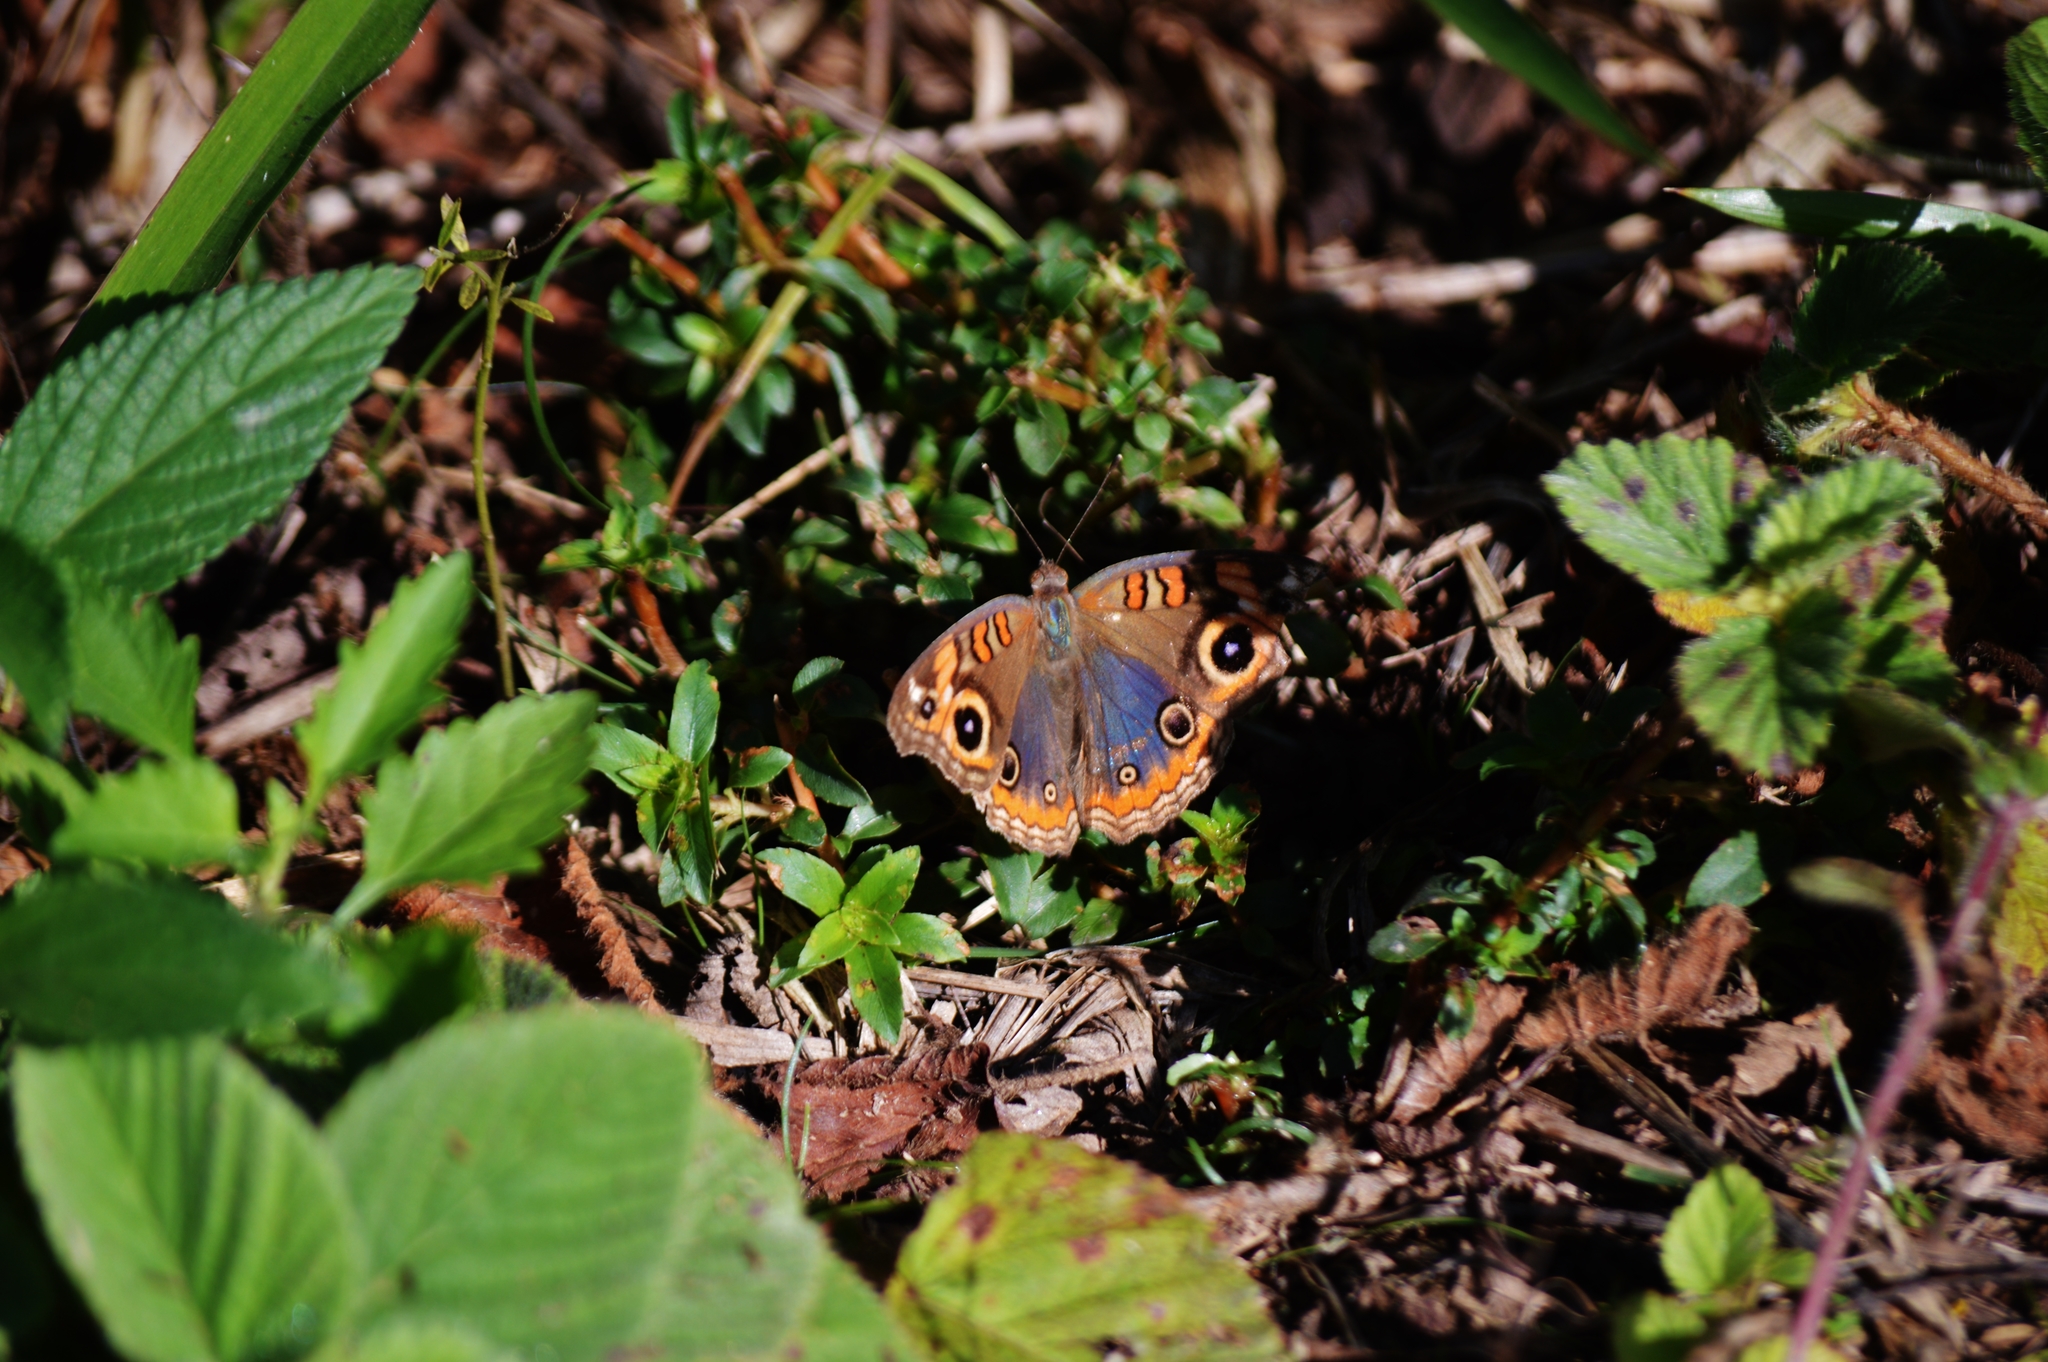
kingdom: Animalia
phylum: Arthropoda
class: Insecta
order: Lepidoptera
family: Nymphalidae
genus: Junonia
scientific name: Junonia evarete
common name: Black mangrove buckeye
